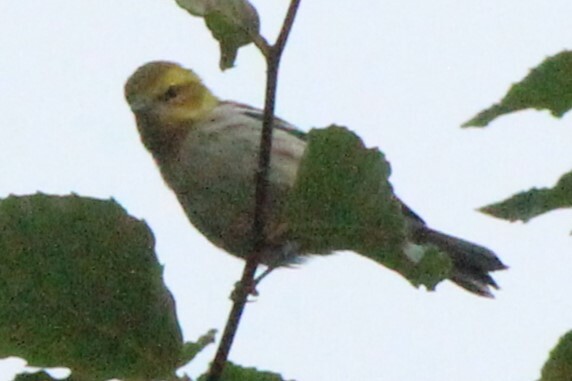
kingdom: Animalia
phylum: Chordata
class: Aves
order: Passeriformes
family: Parulidae
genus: Setophaga
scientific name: Setophaga virens
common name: Black-throated green warbler
